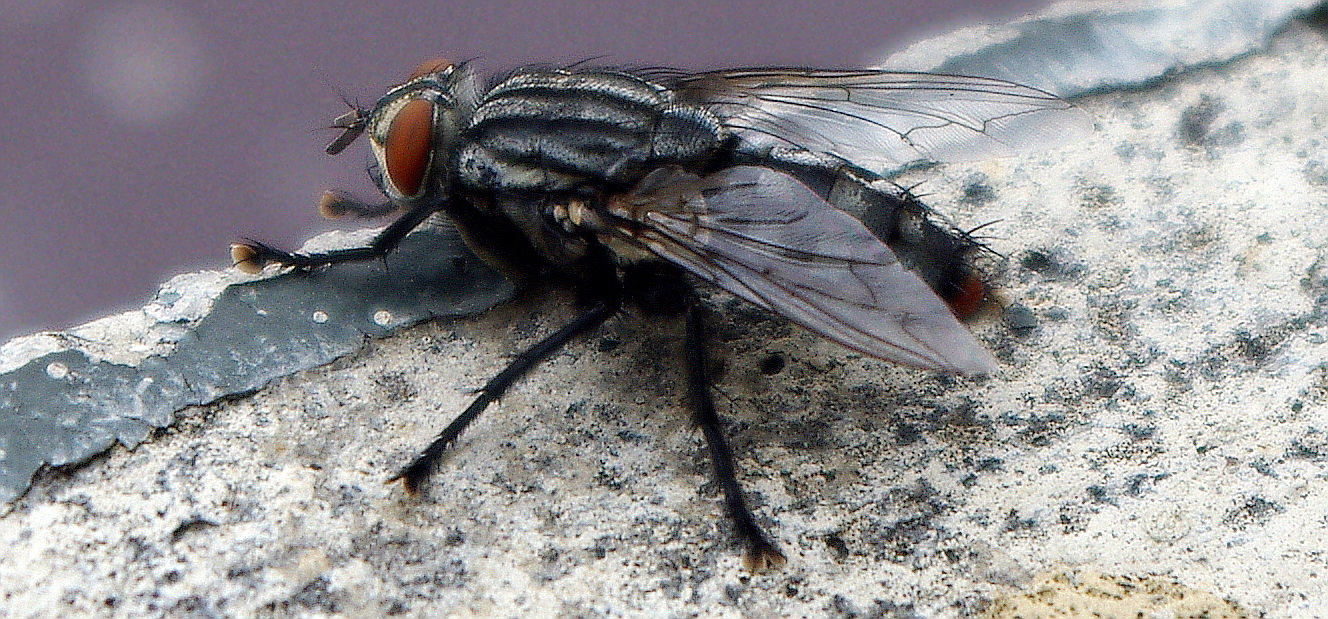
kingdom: Animalia
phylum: Arthropoda
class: Insecta
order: Diptera
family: Sarcophagidae
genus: Sarcophaga
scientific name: Sarcophaga
